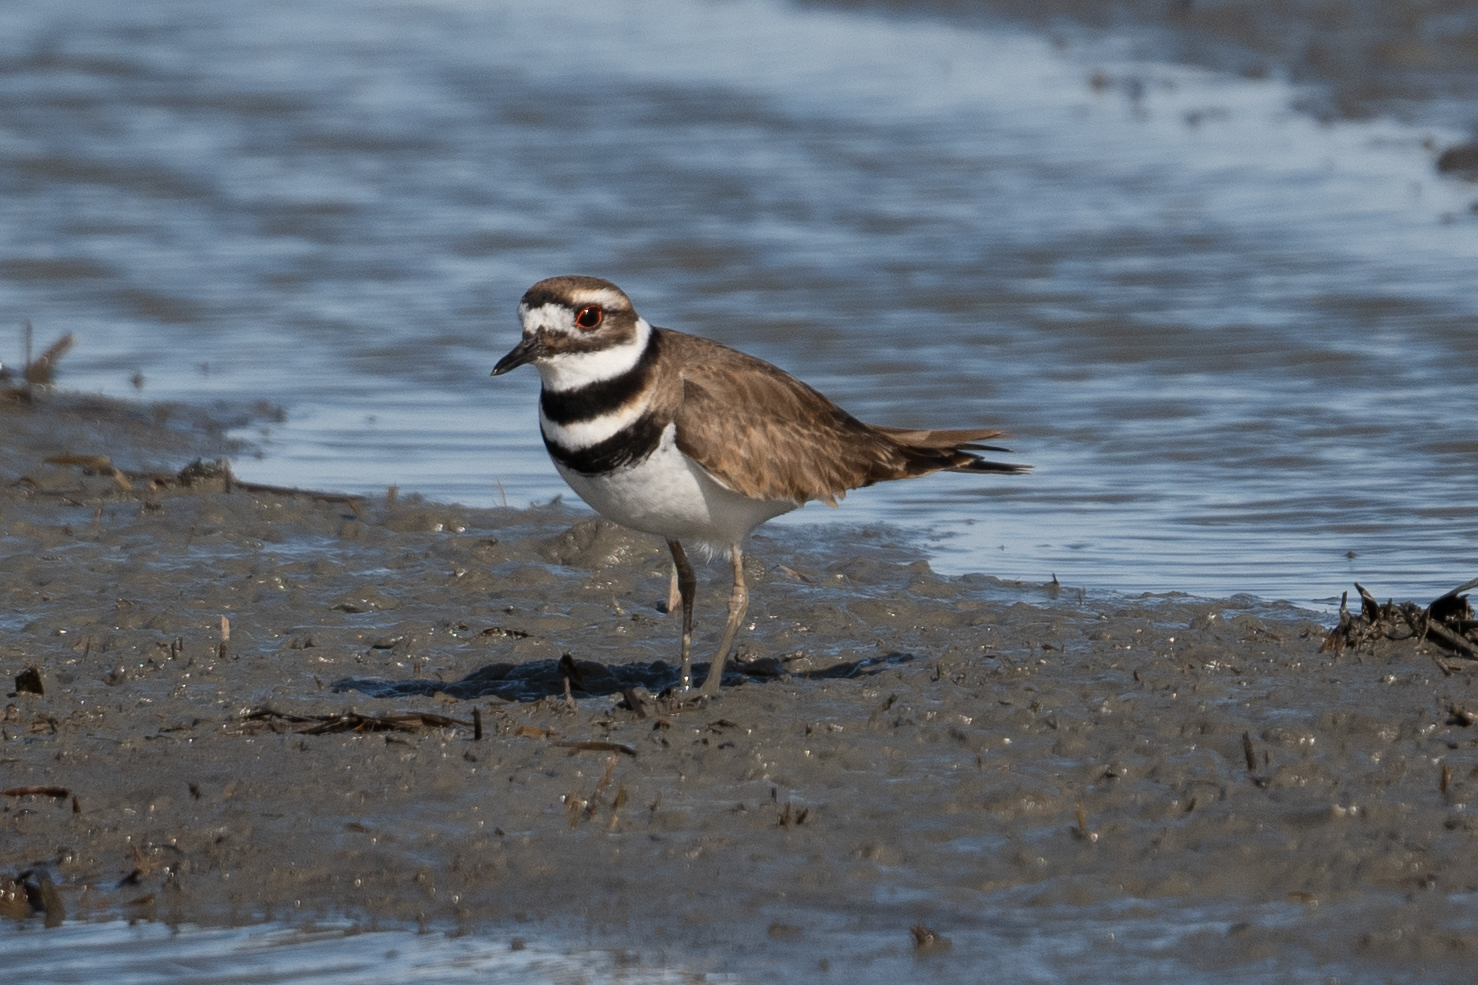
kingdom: Animalia
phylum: Chordata
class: Aves
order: Charadriiformes
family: Charadriidae
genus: Charadrius
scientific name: Charadrius vociferus
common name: Killdeer
